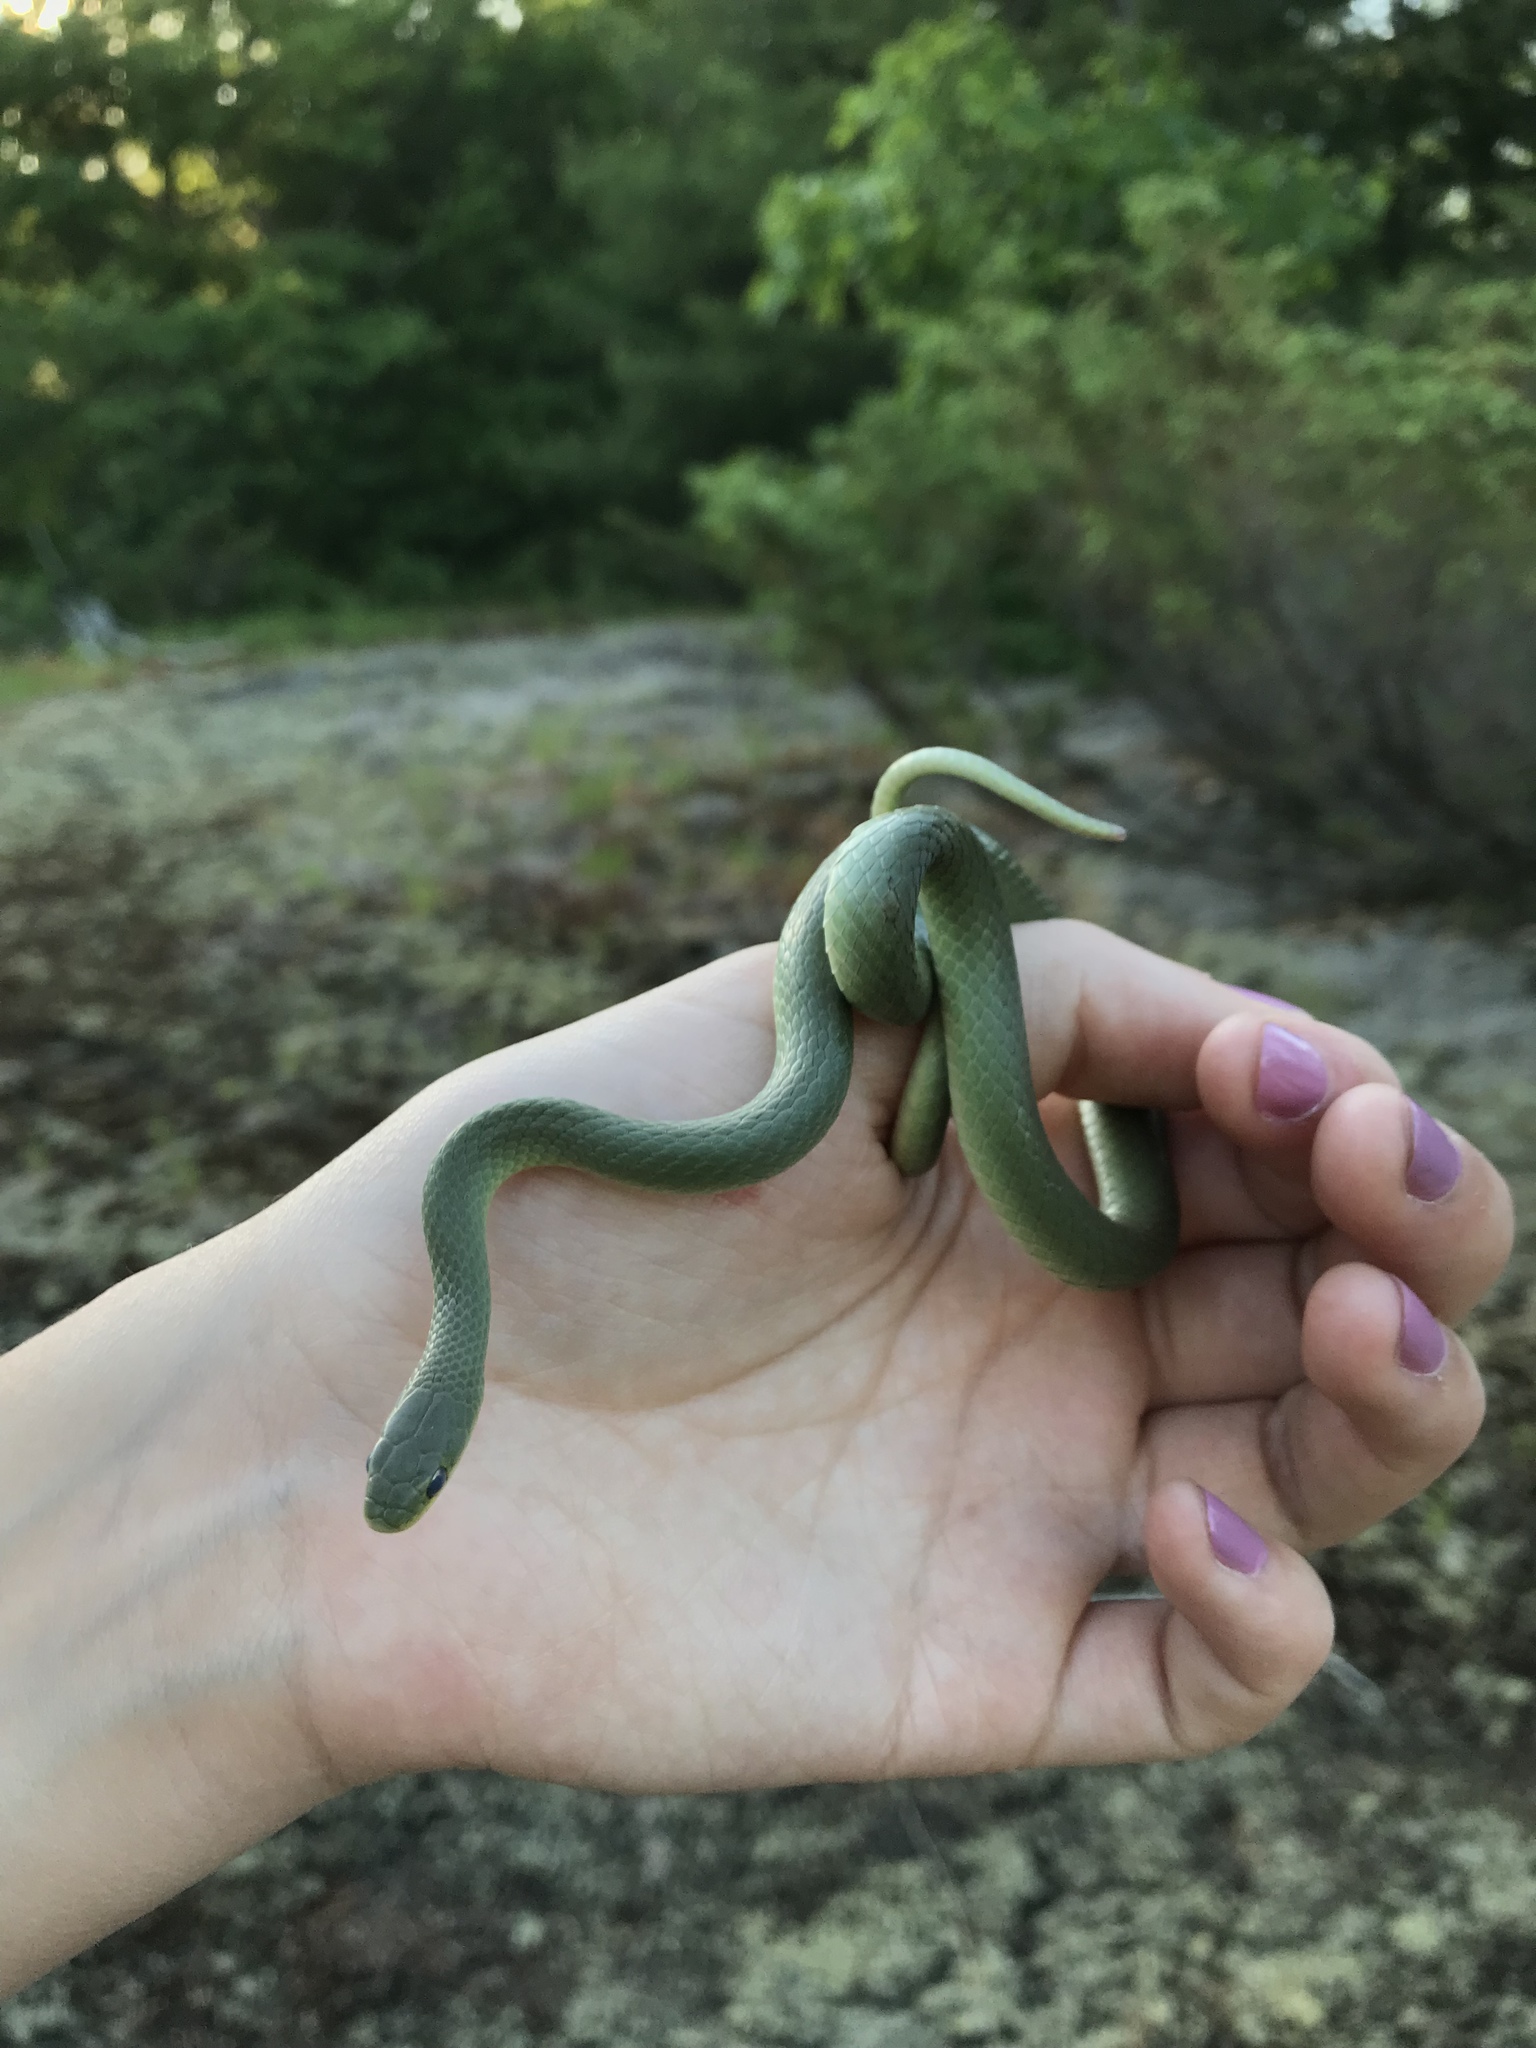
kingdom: Animalia
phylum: Chordata
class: Squamata
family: Colubridae
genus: Opheodrys
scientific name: Opheodrys vernalis
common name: Smooth green snake
